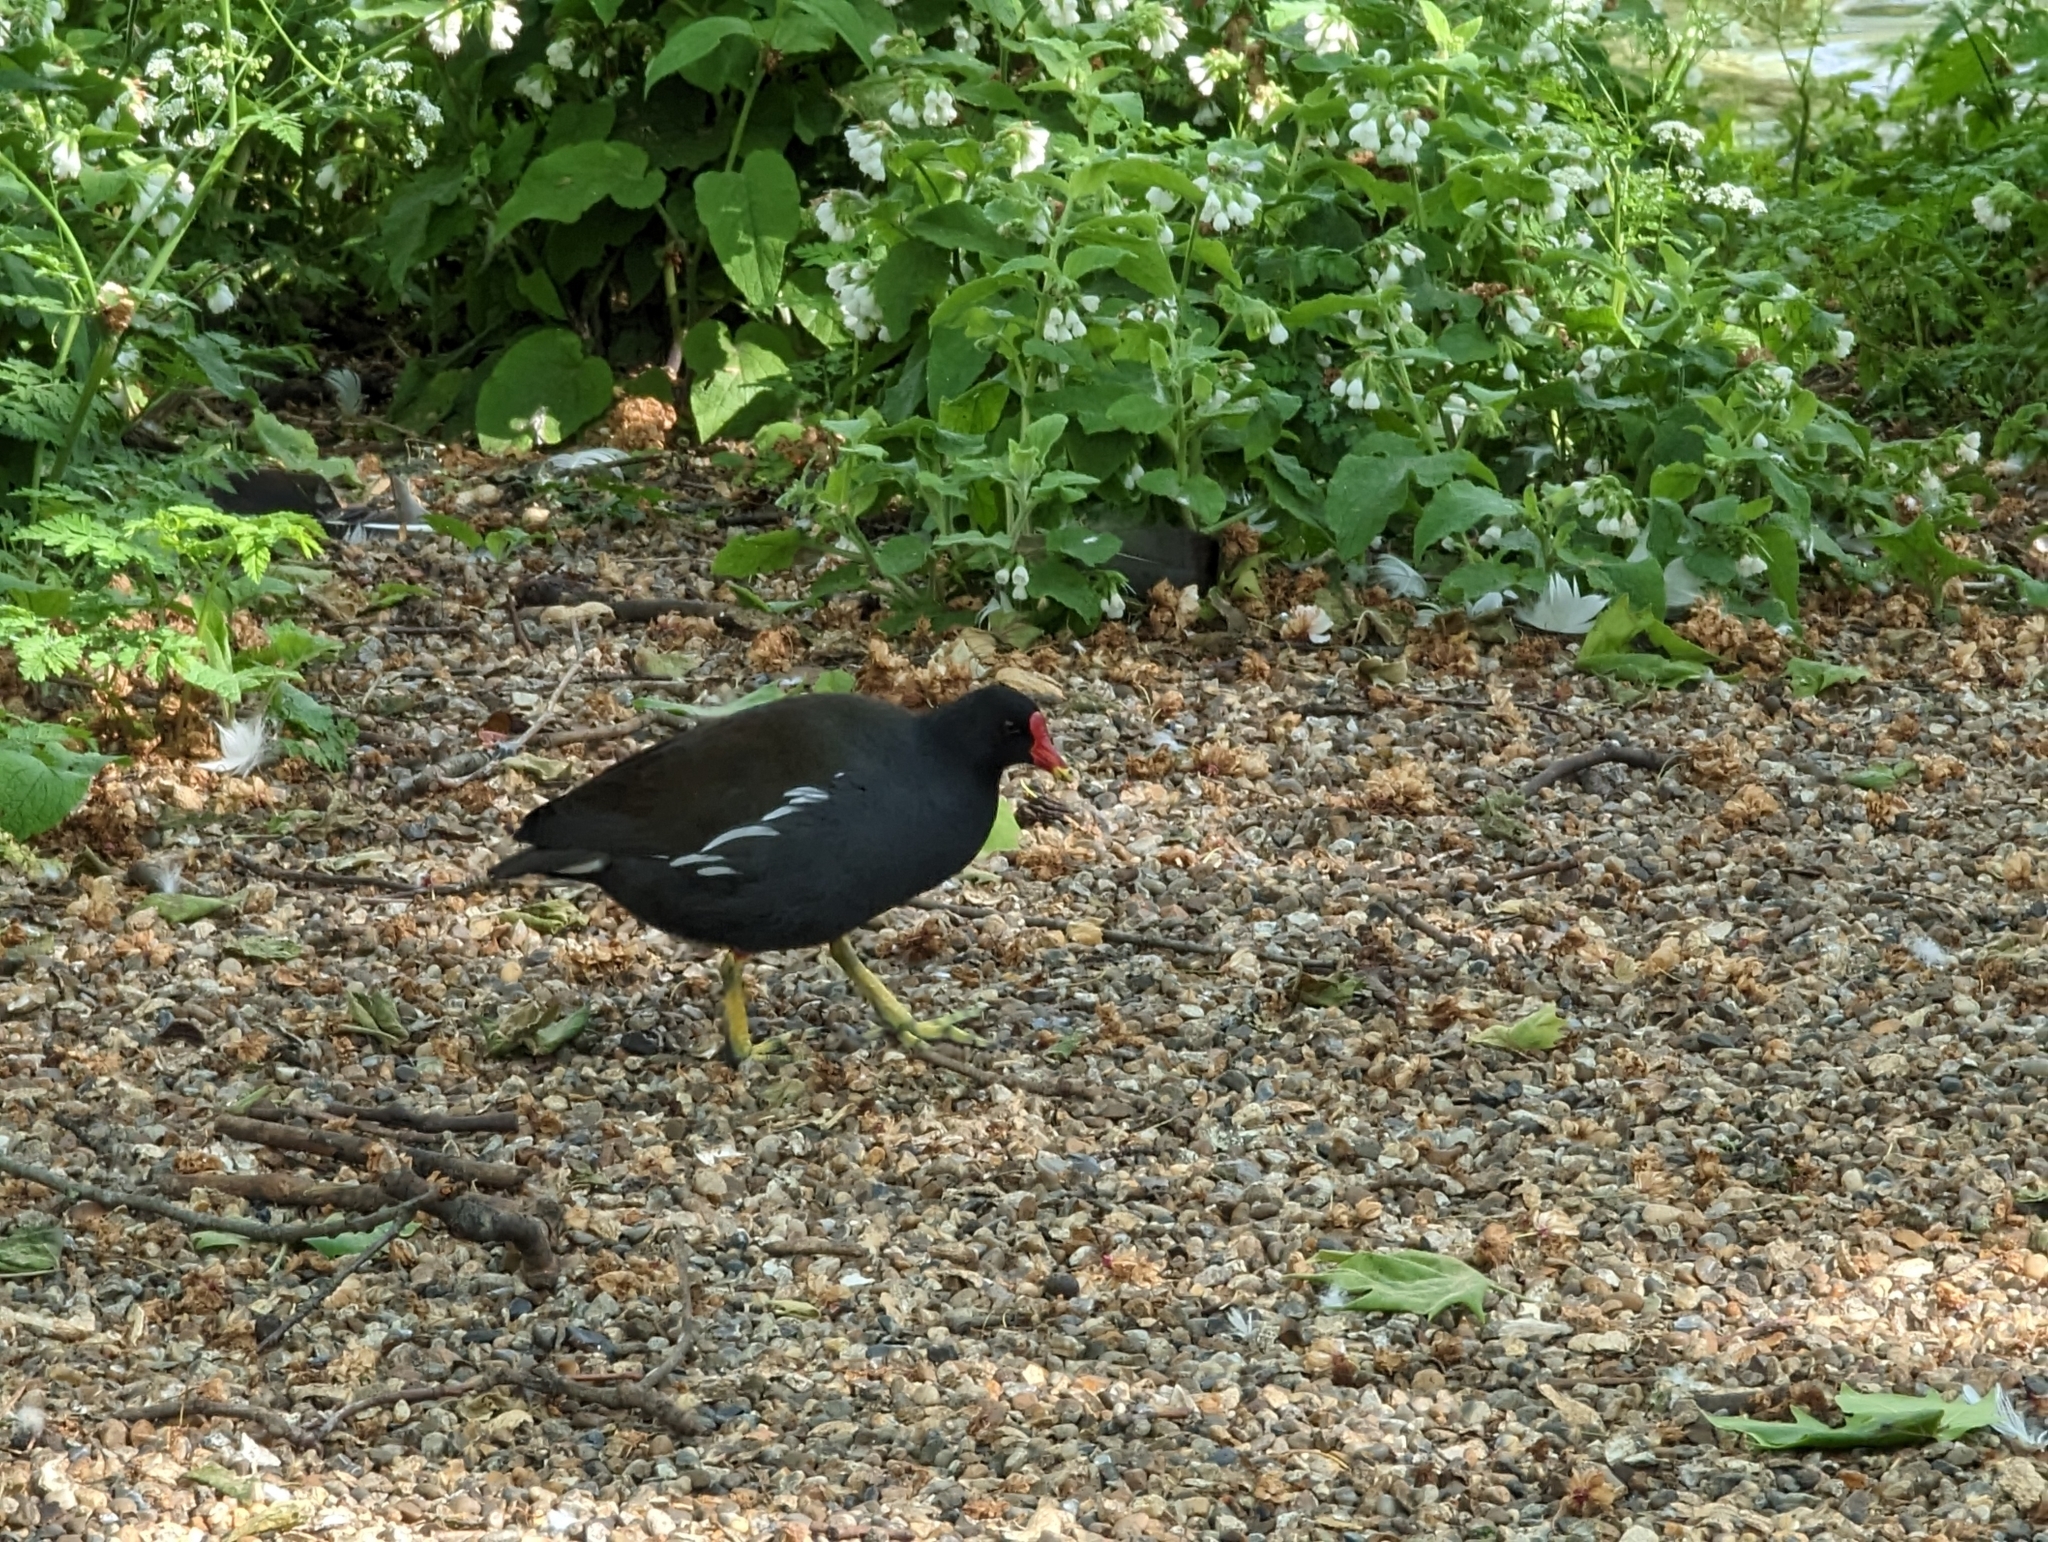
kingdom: Animalia
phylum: Chordata
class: Aves
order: Gruiformes
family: Rallidae
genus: Gallinula
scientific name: Gallinula chloropus
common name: Common moorhen
